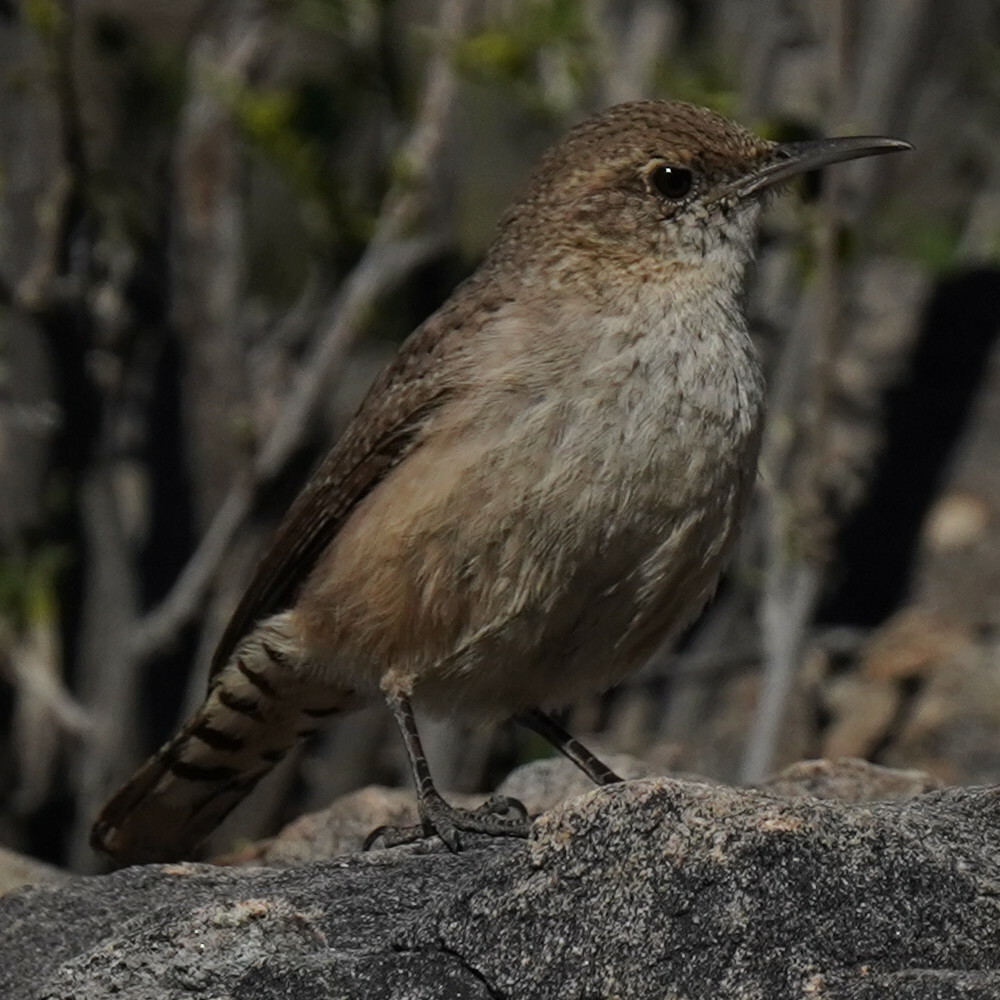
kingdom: Animalia
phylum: Chordata
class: Aves
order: Passeriformes
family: Troglodytidae
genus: Salpinctes
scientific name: Salpinctes obsoletus
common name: Rock wren
